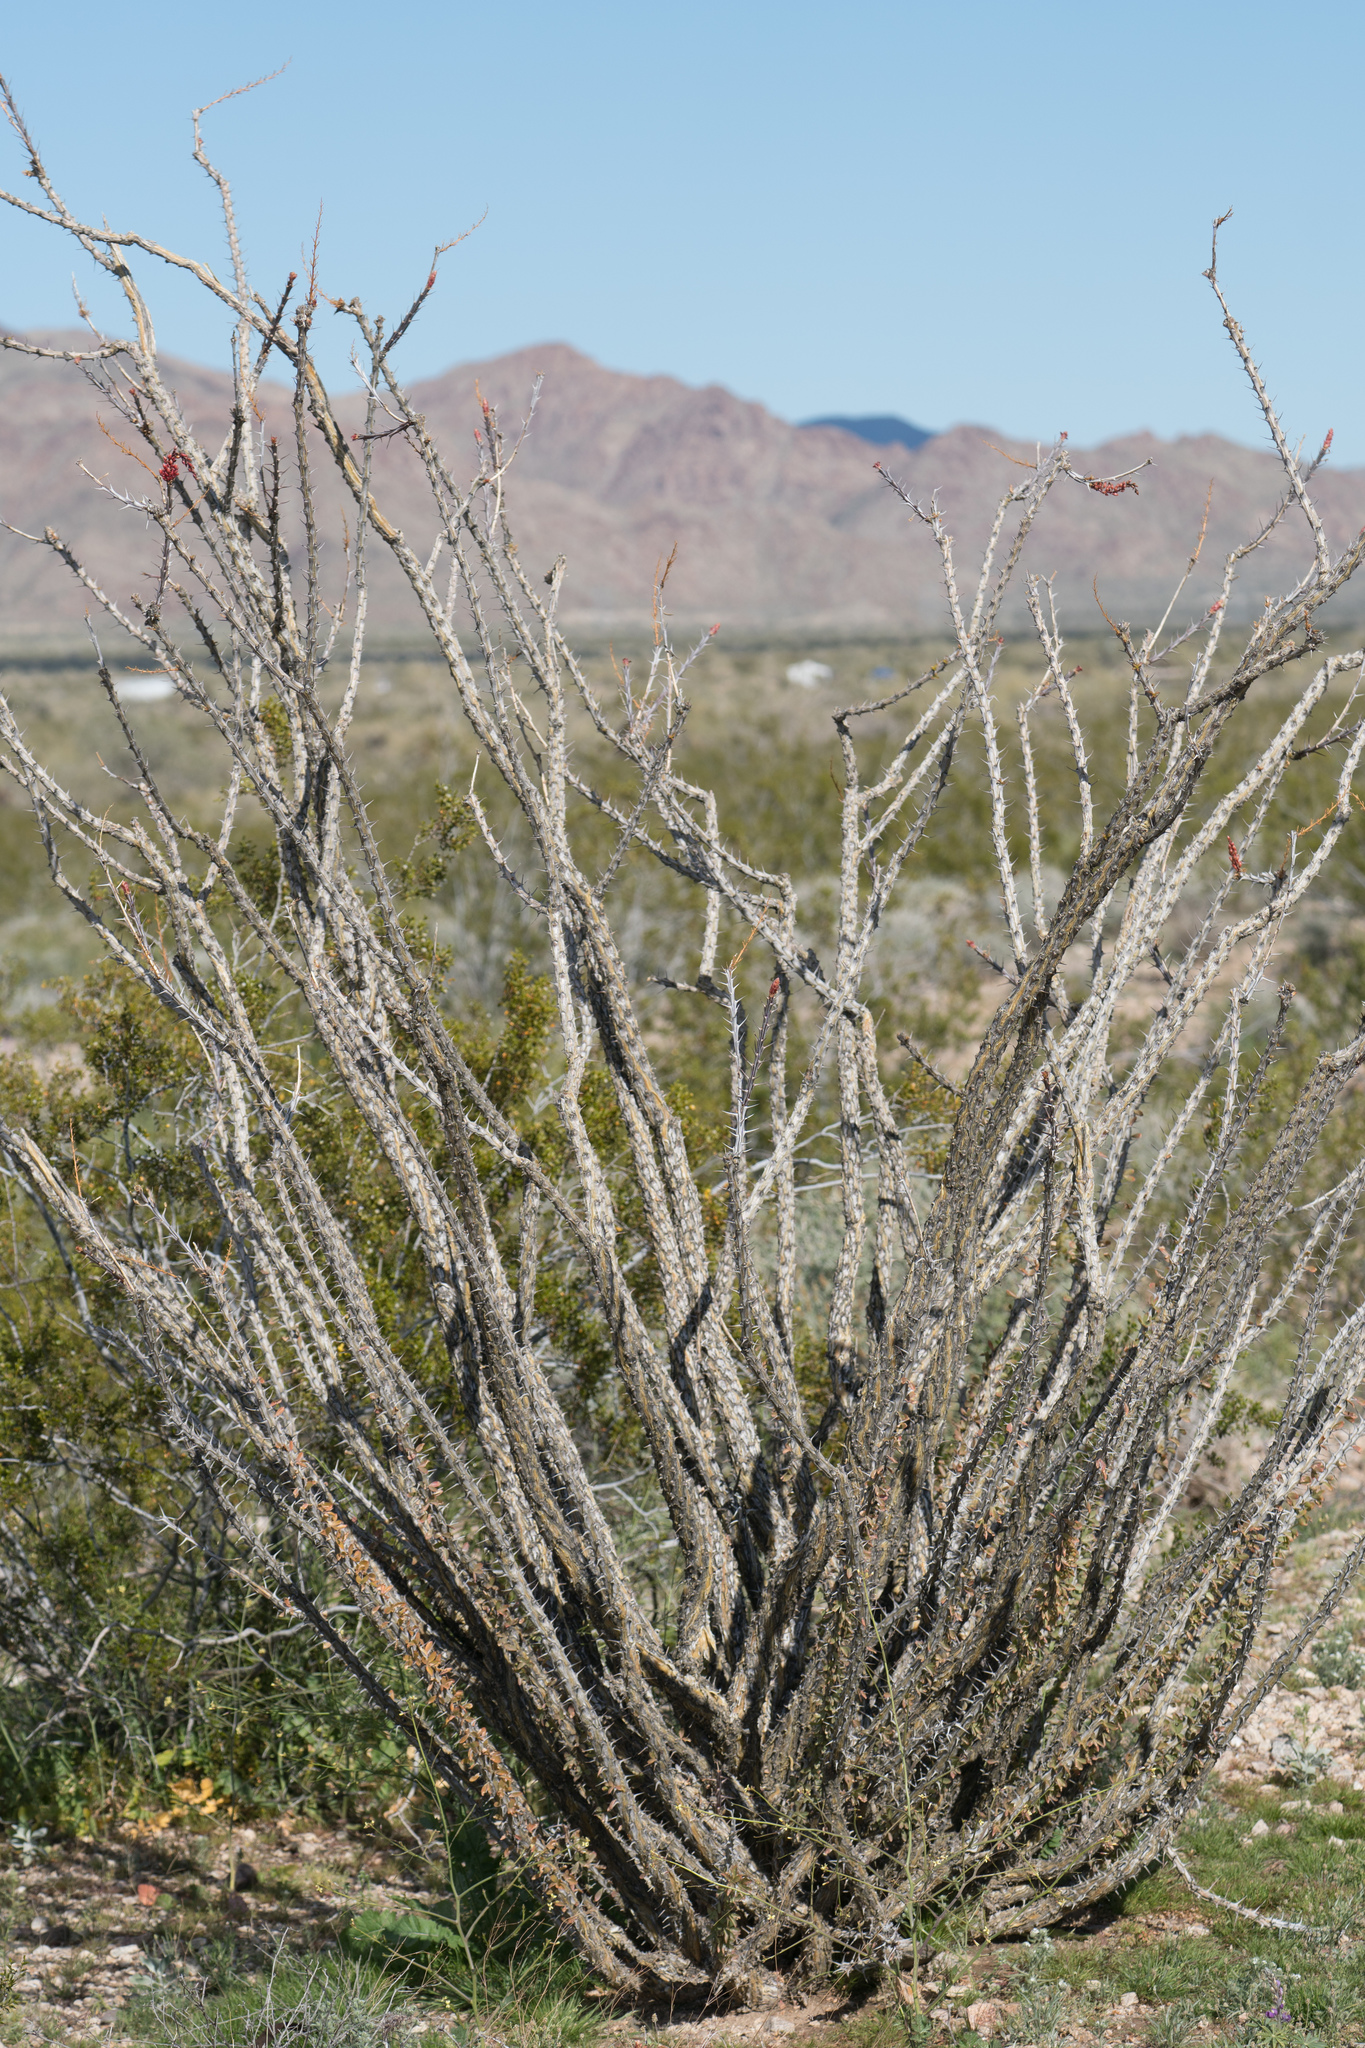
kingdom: Plantae
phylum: Tracheophyta
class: Magnoliopsida
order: Ericales
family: Fouquieriaceae
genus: Fouquieria
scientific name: Fouquieria splendens
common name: Vine-cactus
